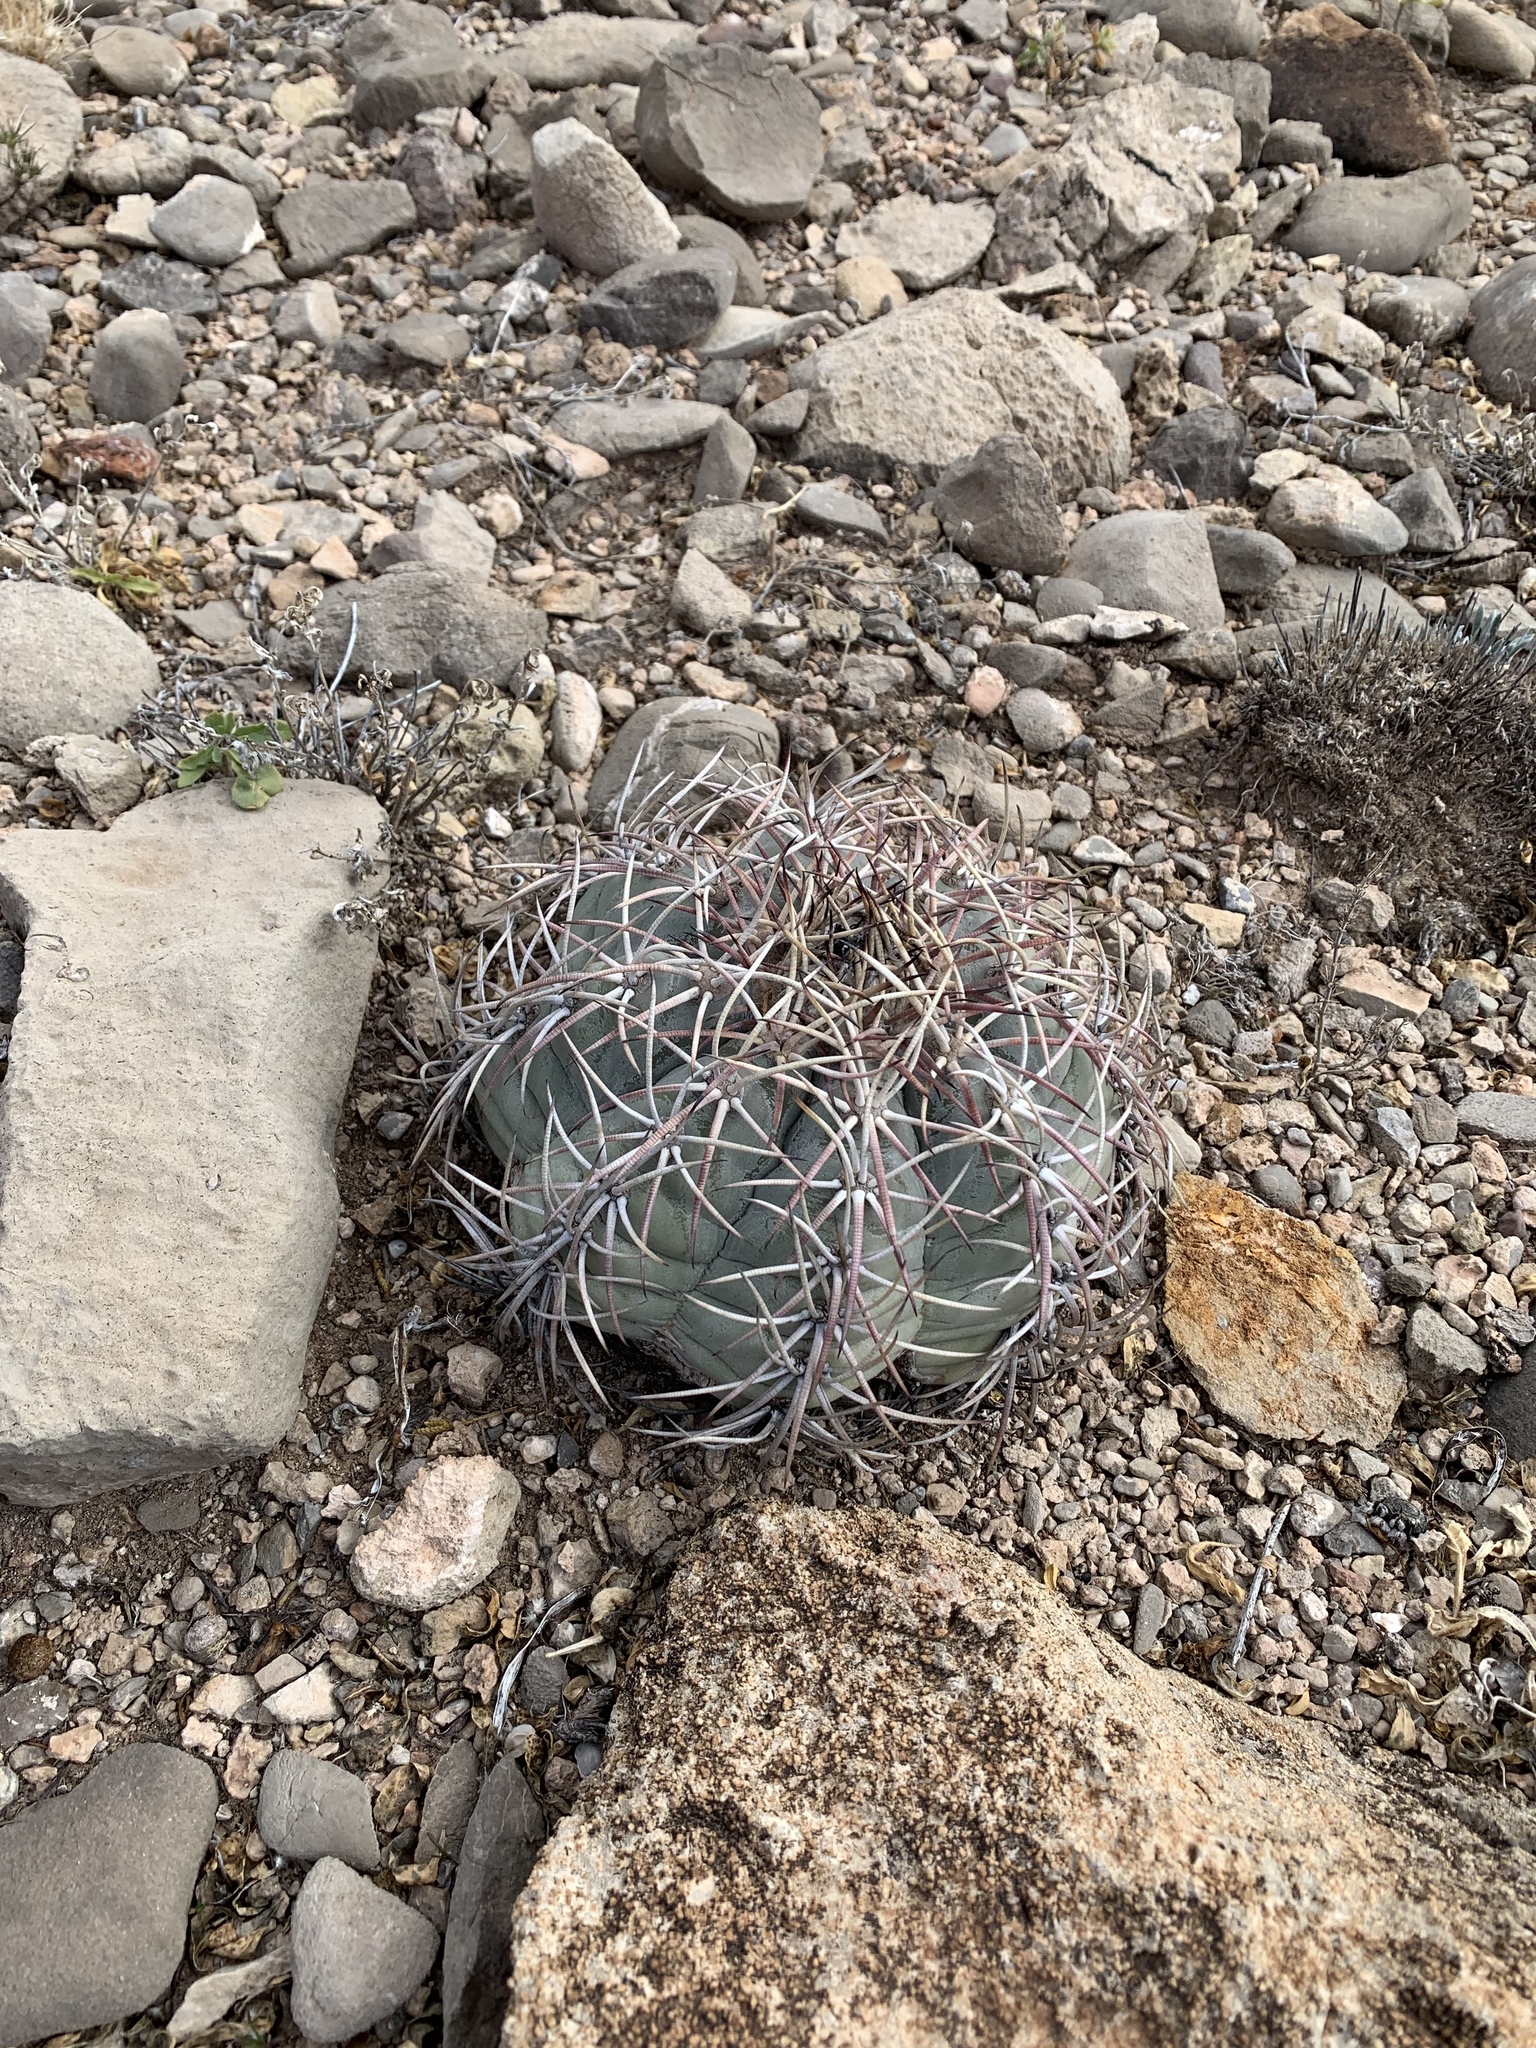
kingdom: Plantae
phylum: Tracheophyta
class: Magnoliopsida
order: Caryophyllales
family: Cactaceae
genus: Echinocactus
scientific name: Echinocactus horizonthalonius
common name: Devilshead
